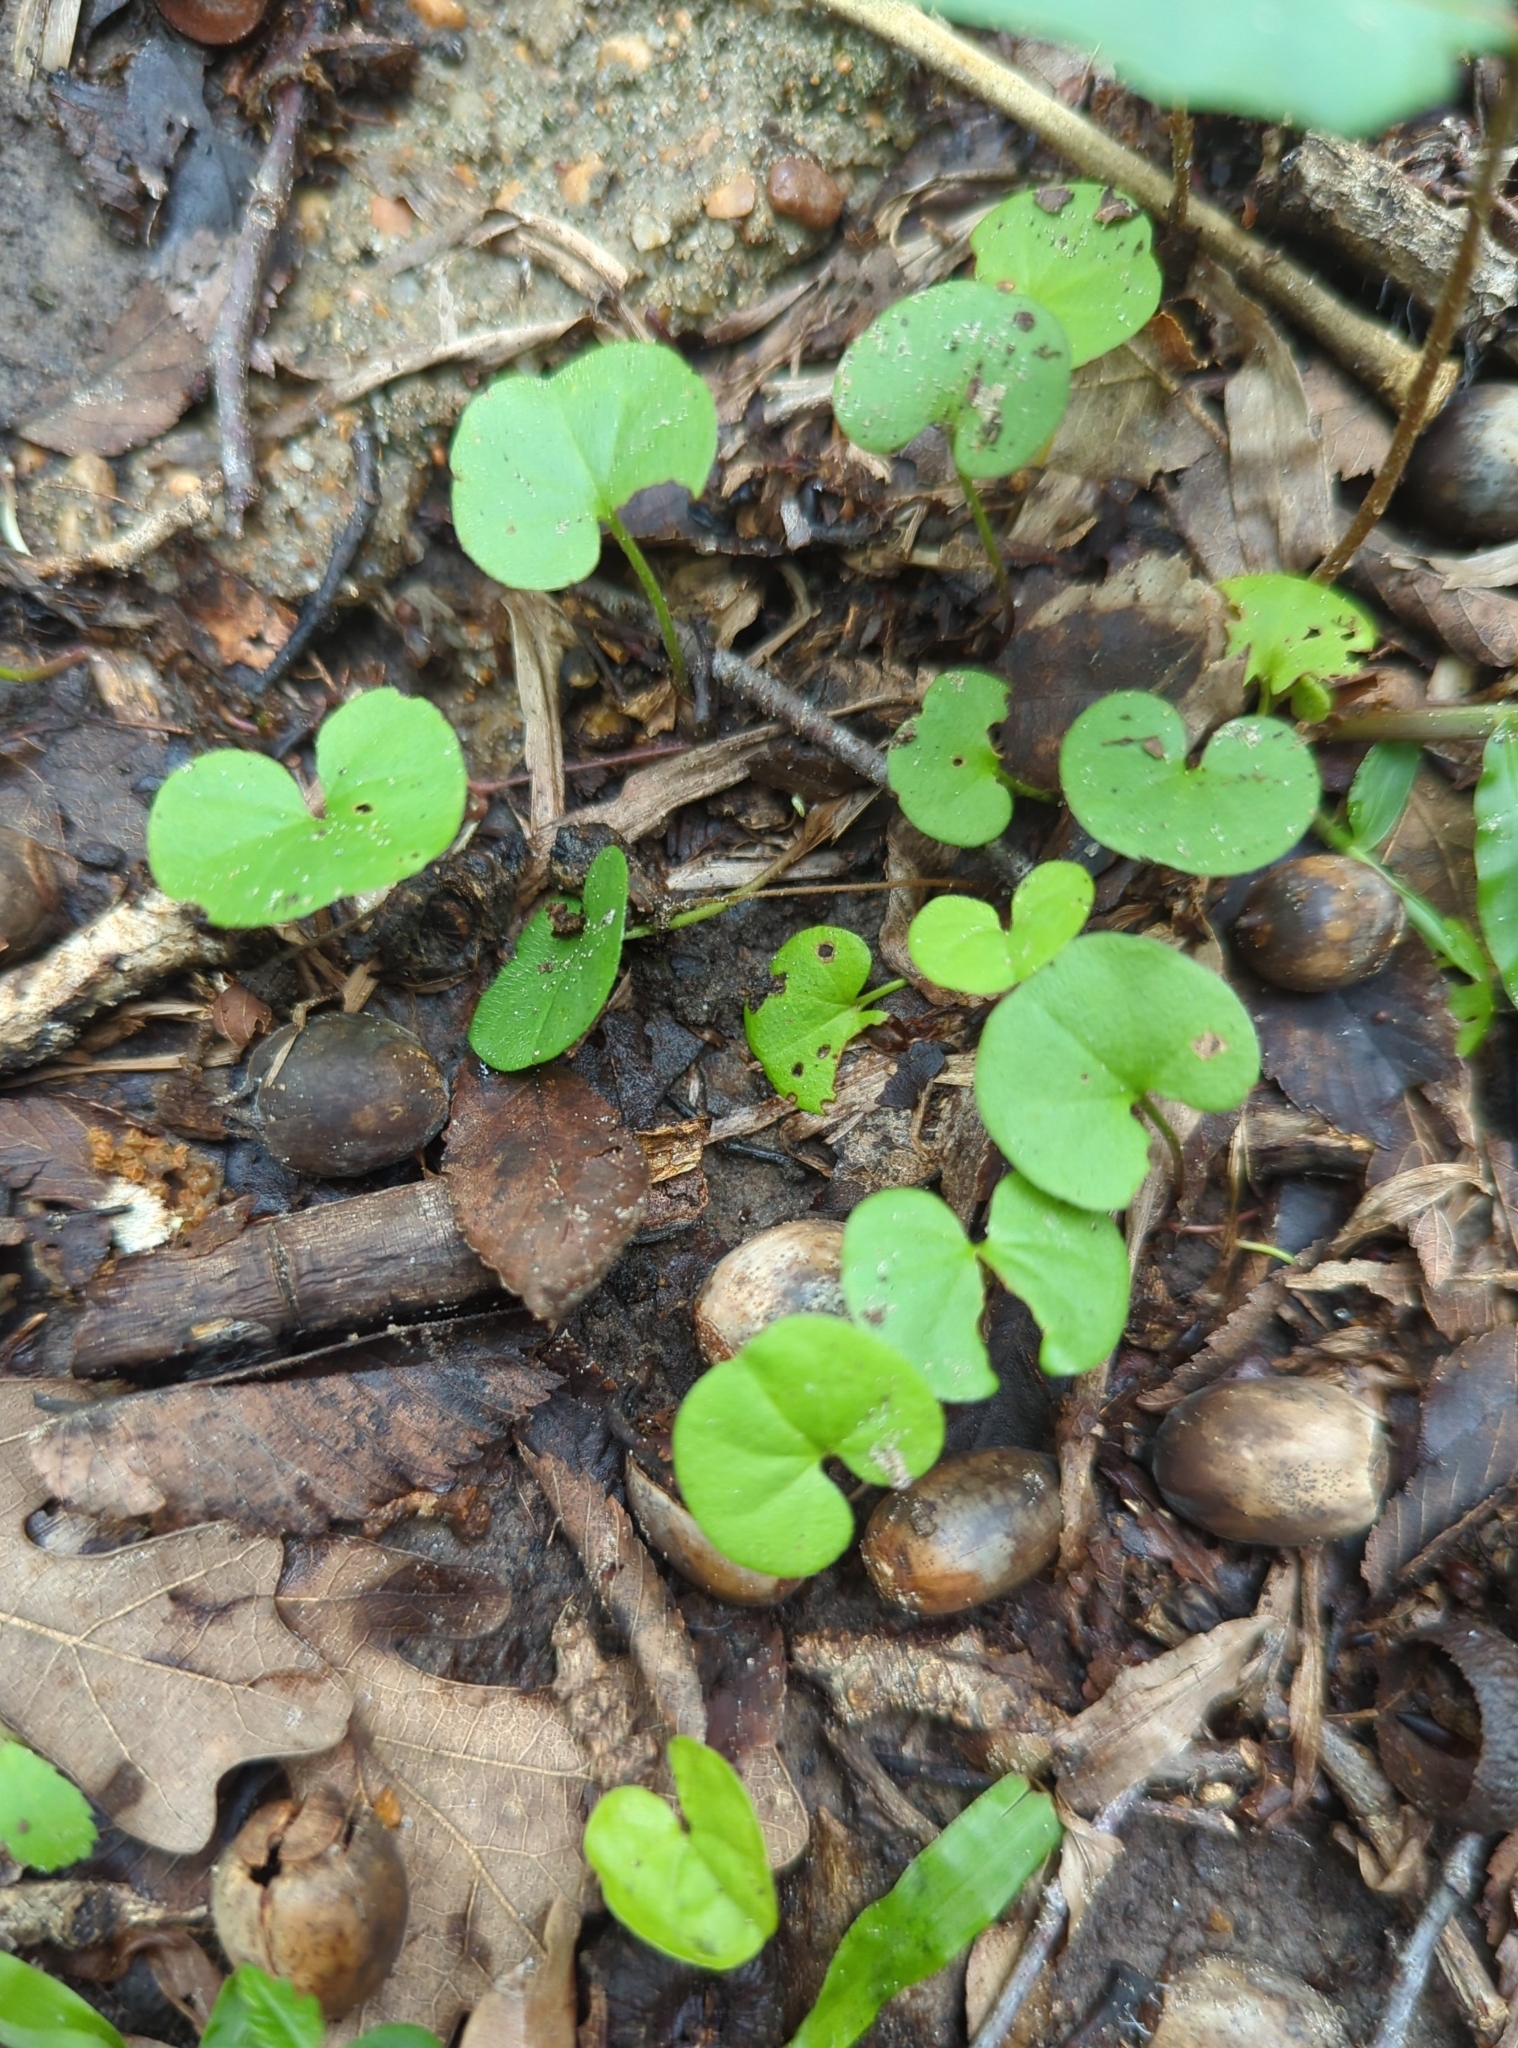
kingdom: Plantae
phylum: Tracheophyta
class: Magnoliopsida
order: Solanales
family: Convolvulaceae
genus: Dichondra
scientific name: Dichondra carolinensis
